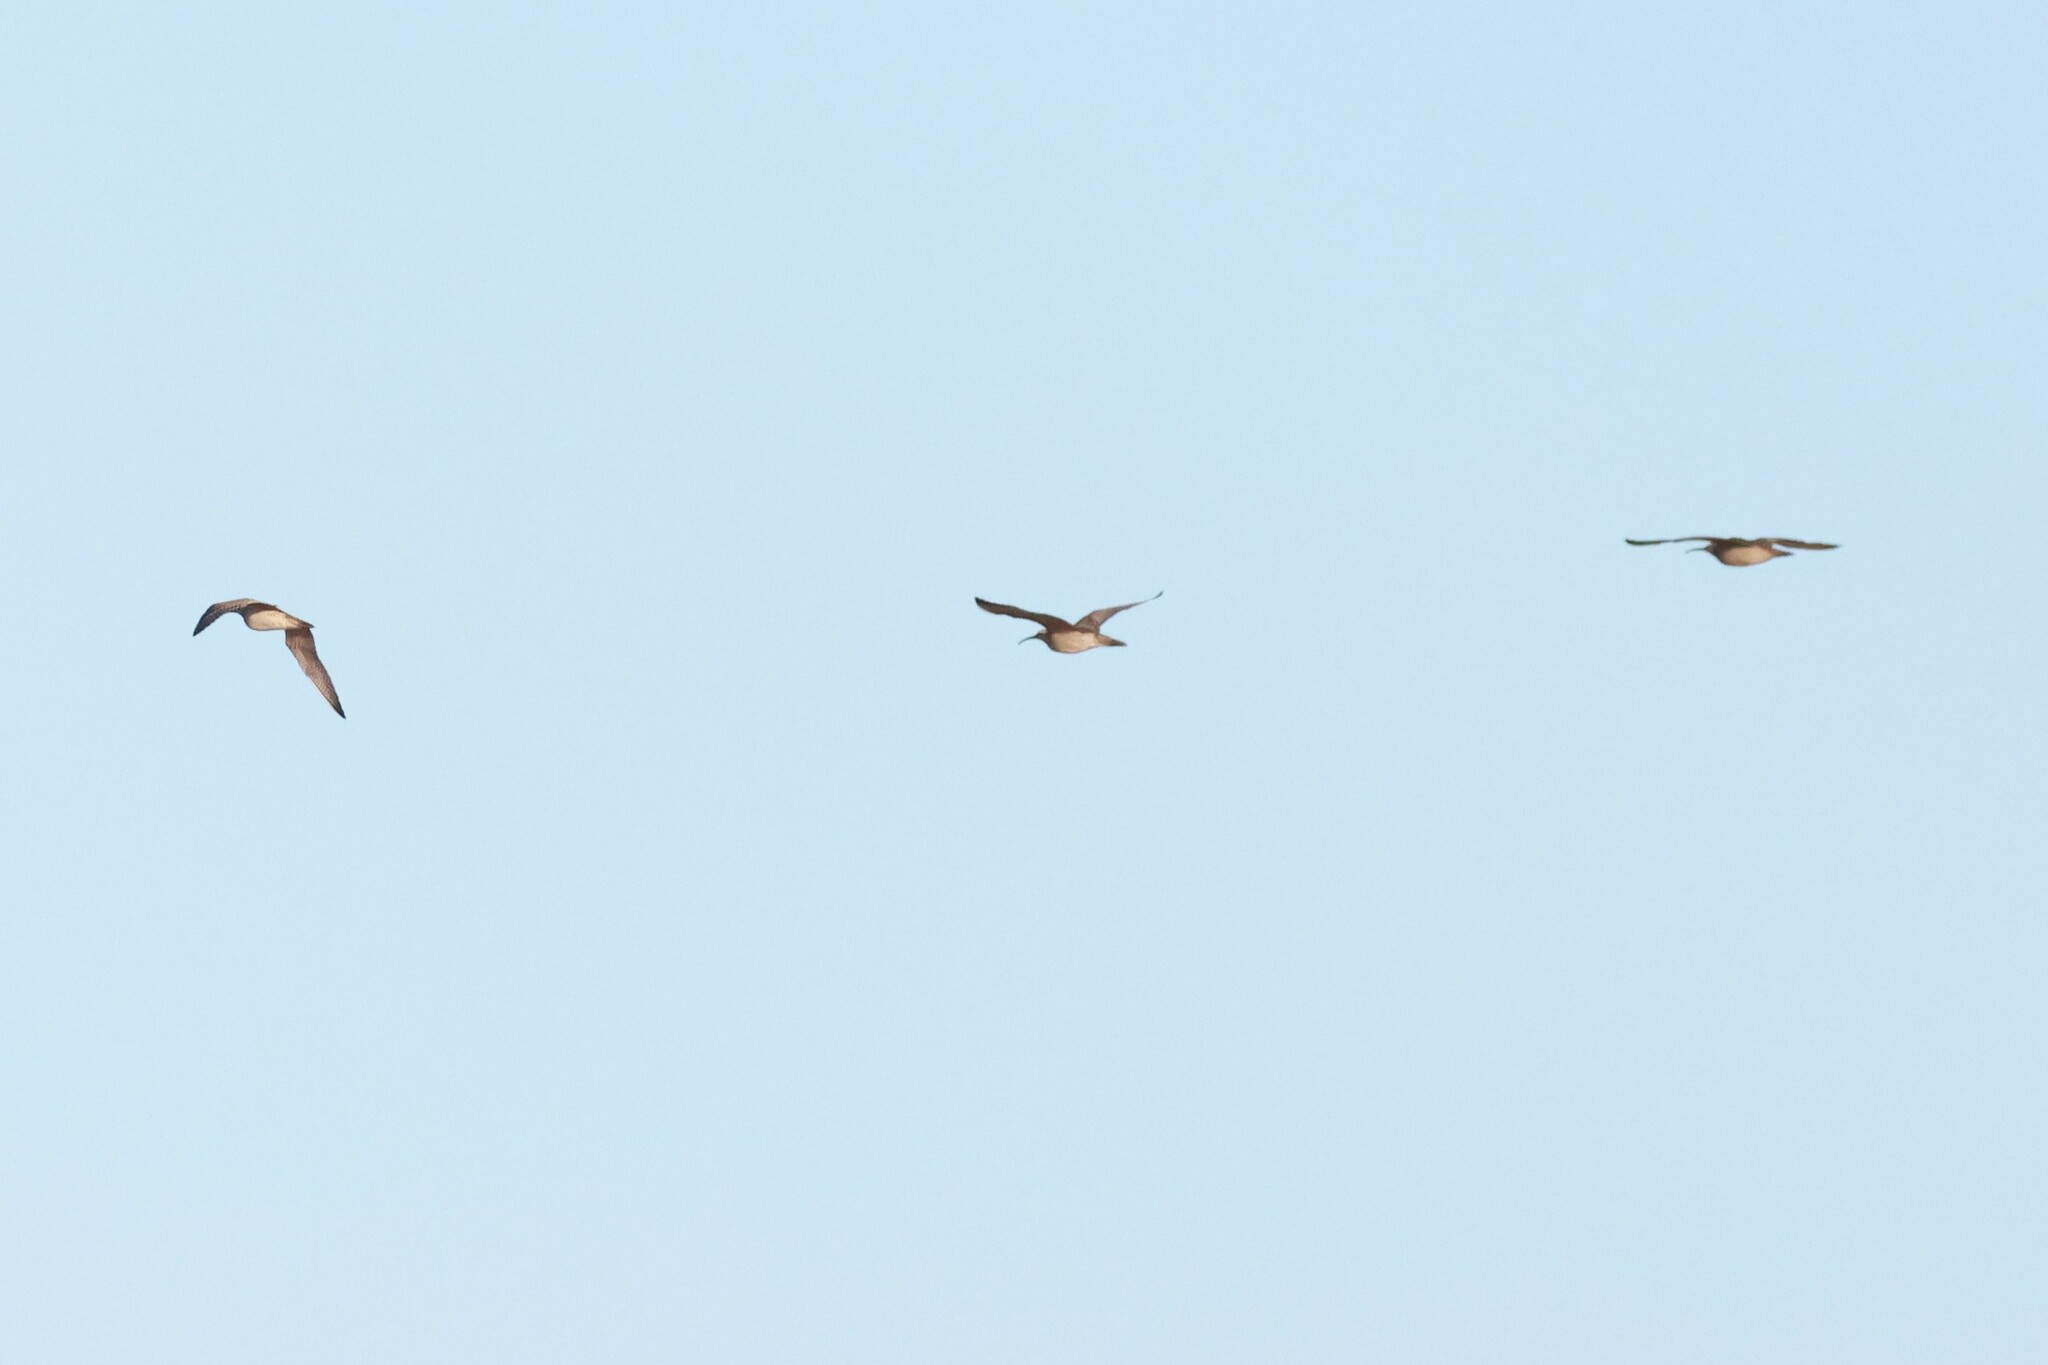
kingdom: Animalia
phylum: Chordata
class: Aves
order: Charadriiformes
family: Scolopacidae
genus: Numenius
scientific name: Numenius phaeopus
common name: Whimbrel
